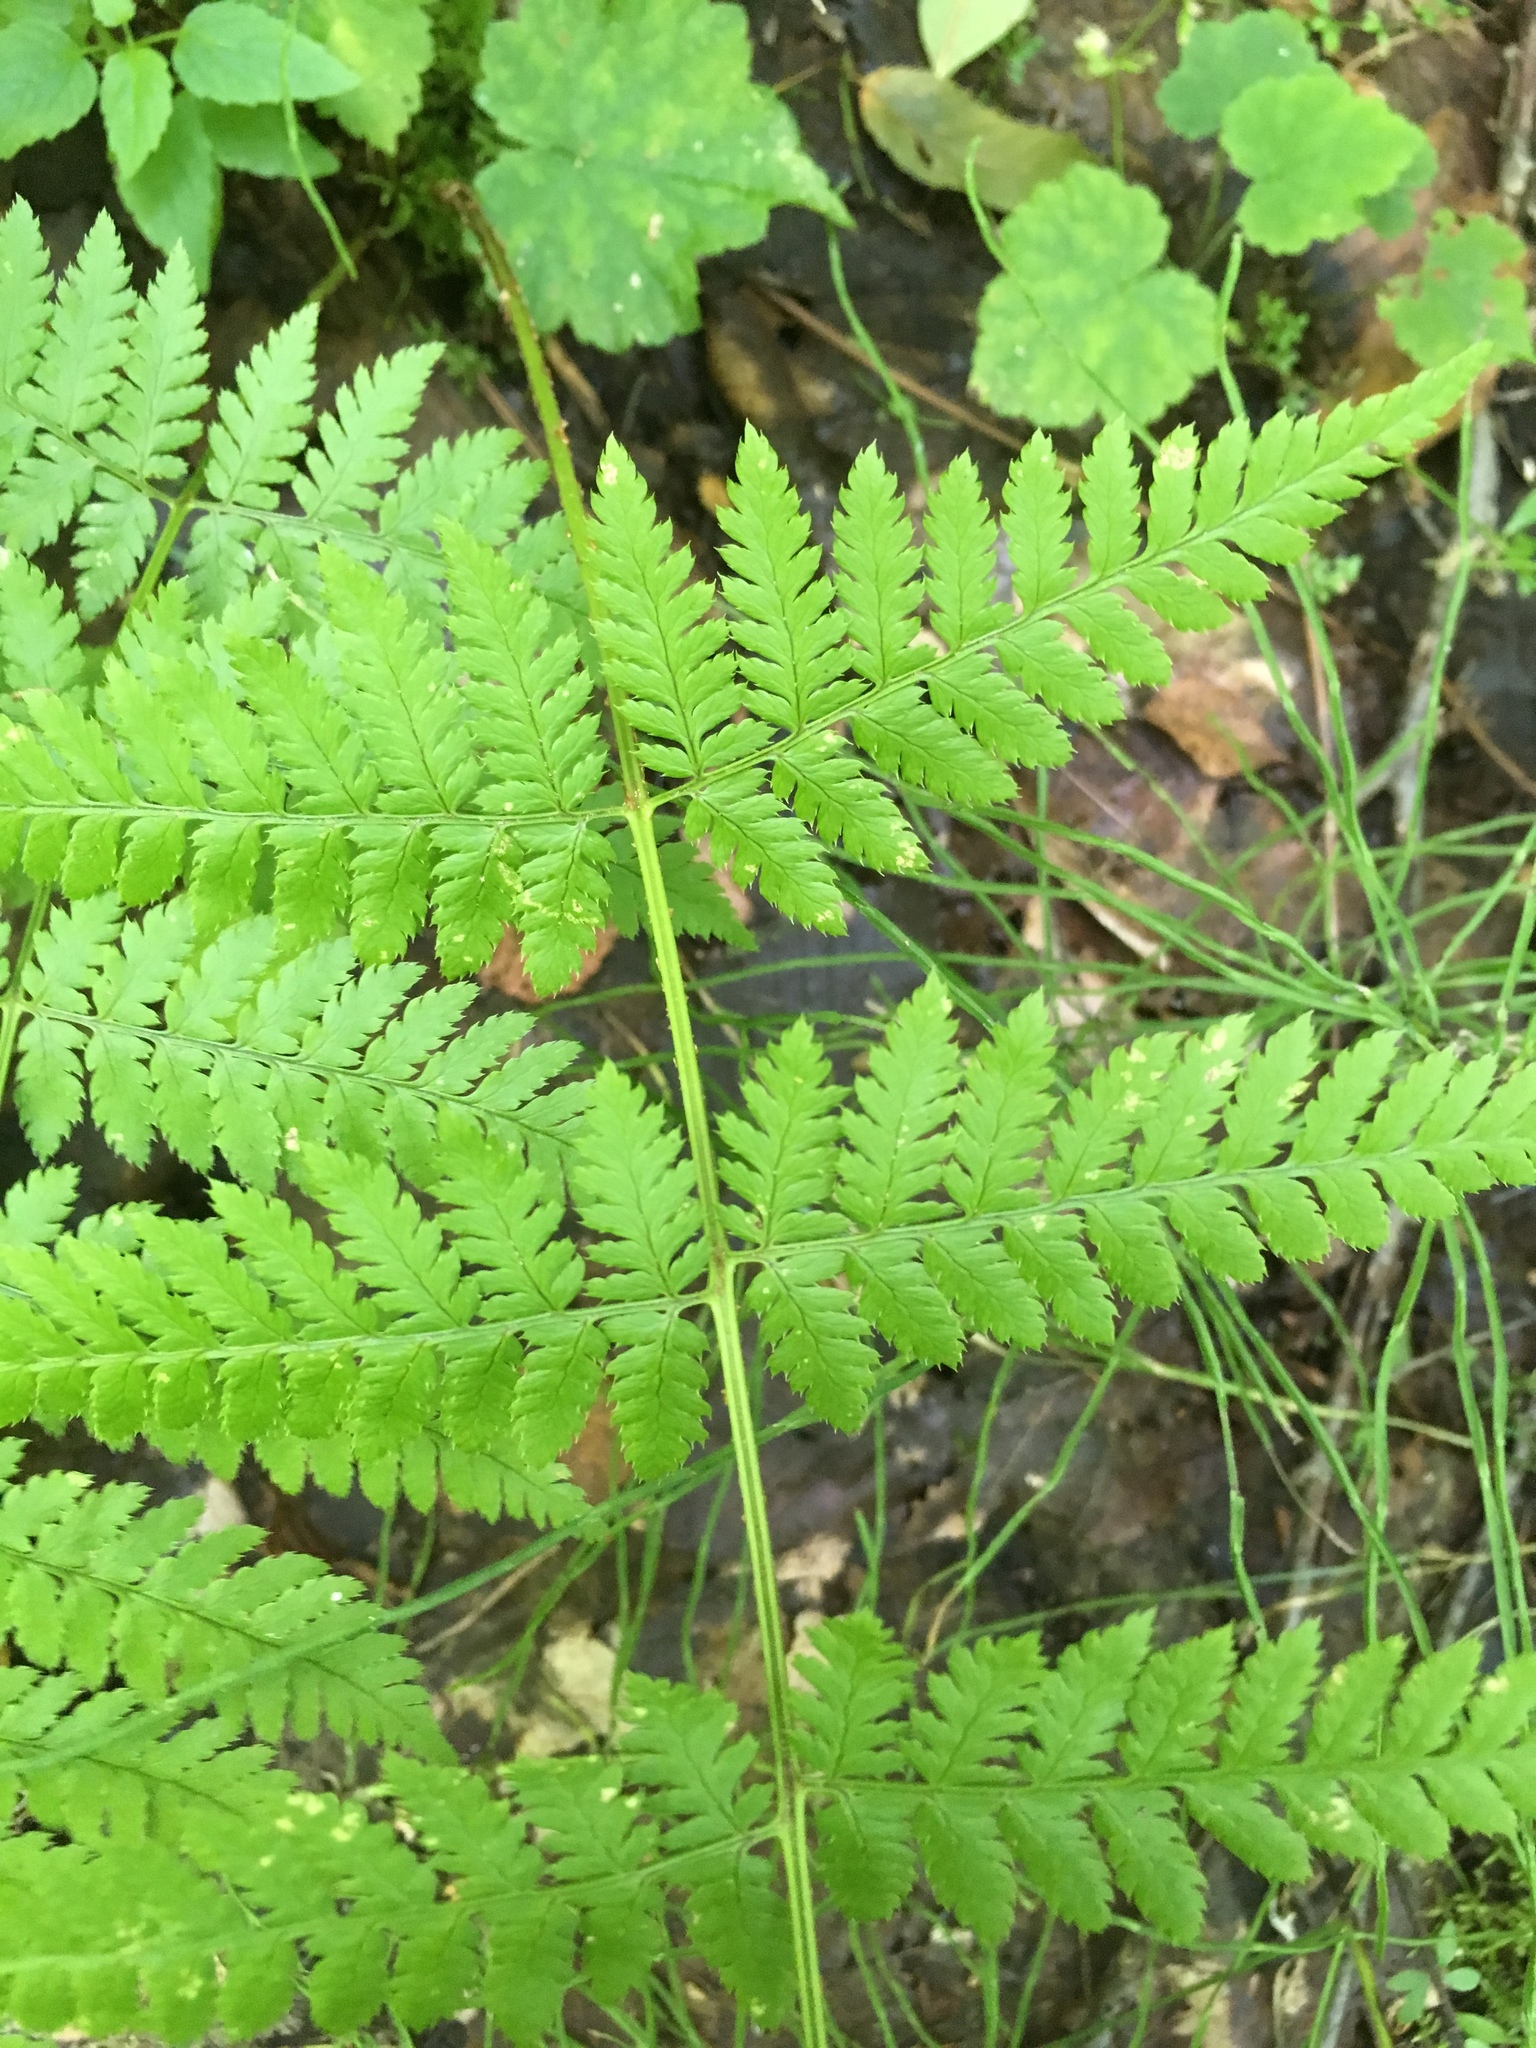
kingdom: Plantae
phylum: Tracheophyta
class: Polypodiopsida
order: Polypodiales
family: Dryopteridaceae
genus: Dryopteris
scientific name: Dryopteris carthusiana
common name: Narrow buckler-fern
